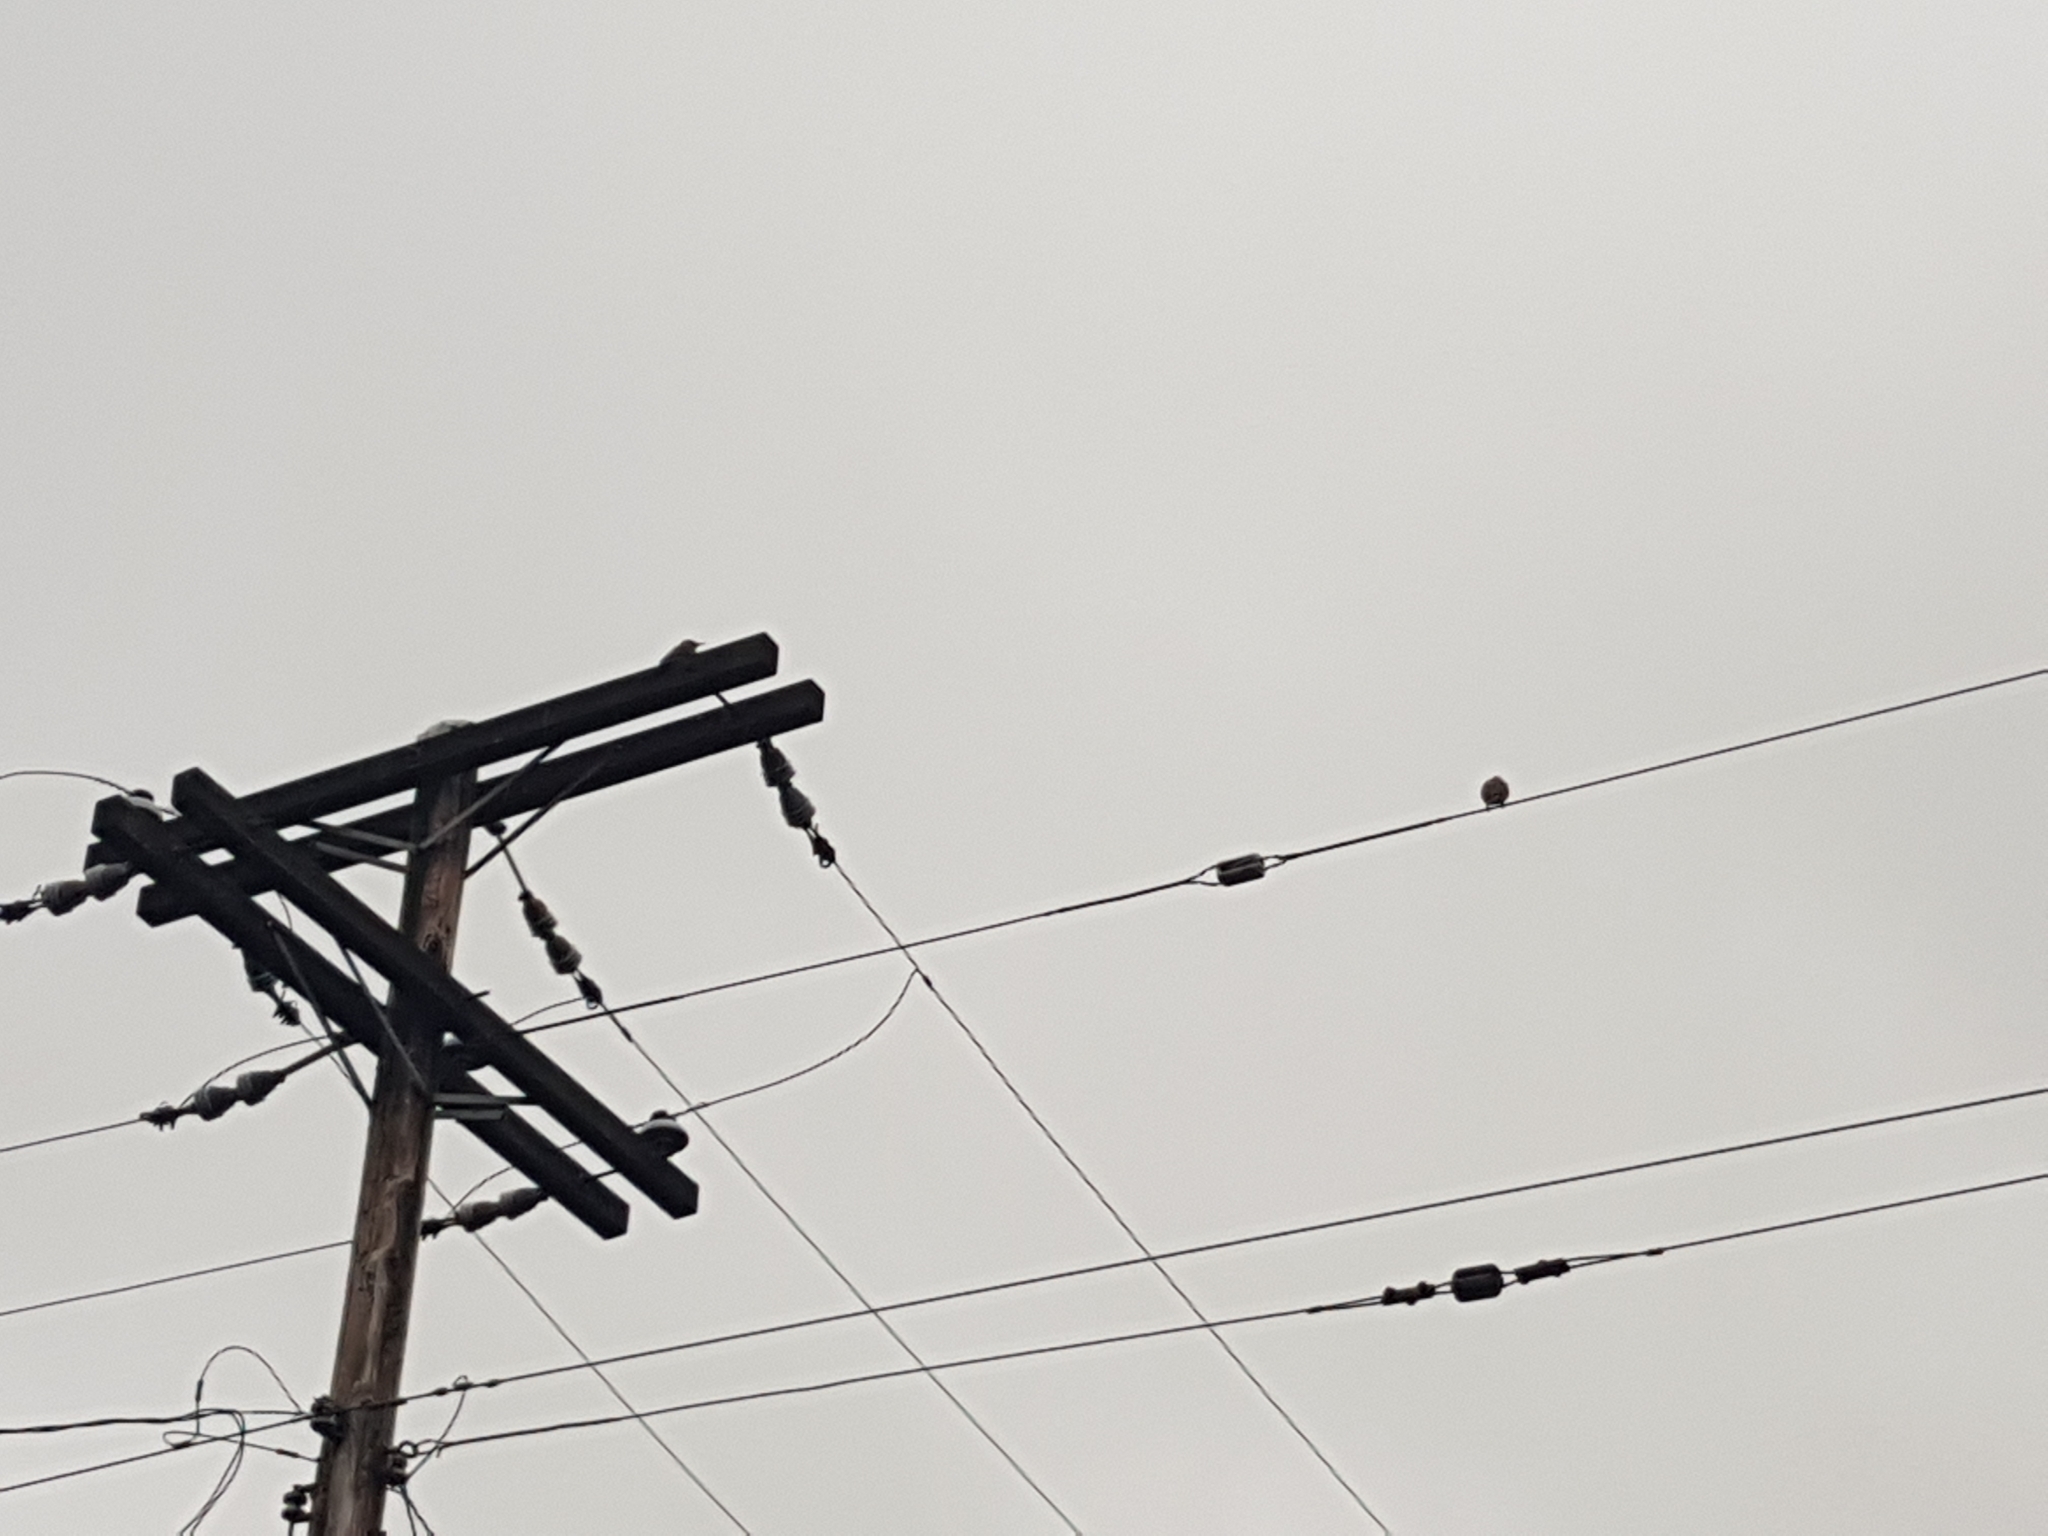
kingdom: Animalia
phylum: Chordata
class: Aves
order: Piciformes
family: Picidae
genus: Colaptes
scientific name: Colaptes auratus
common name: Northern flicker
